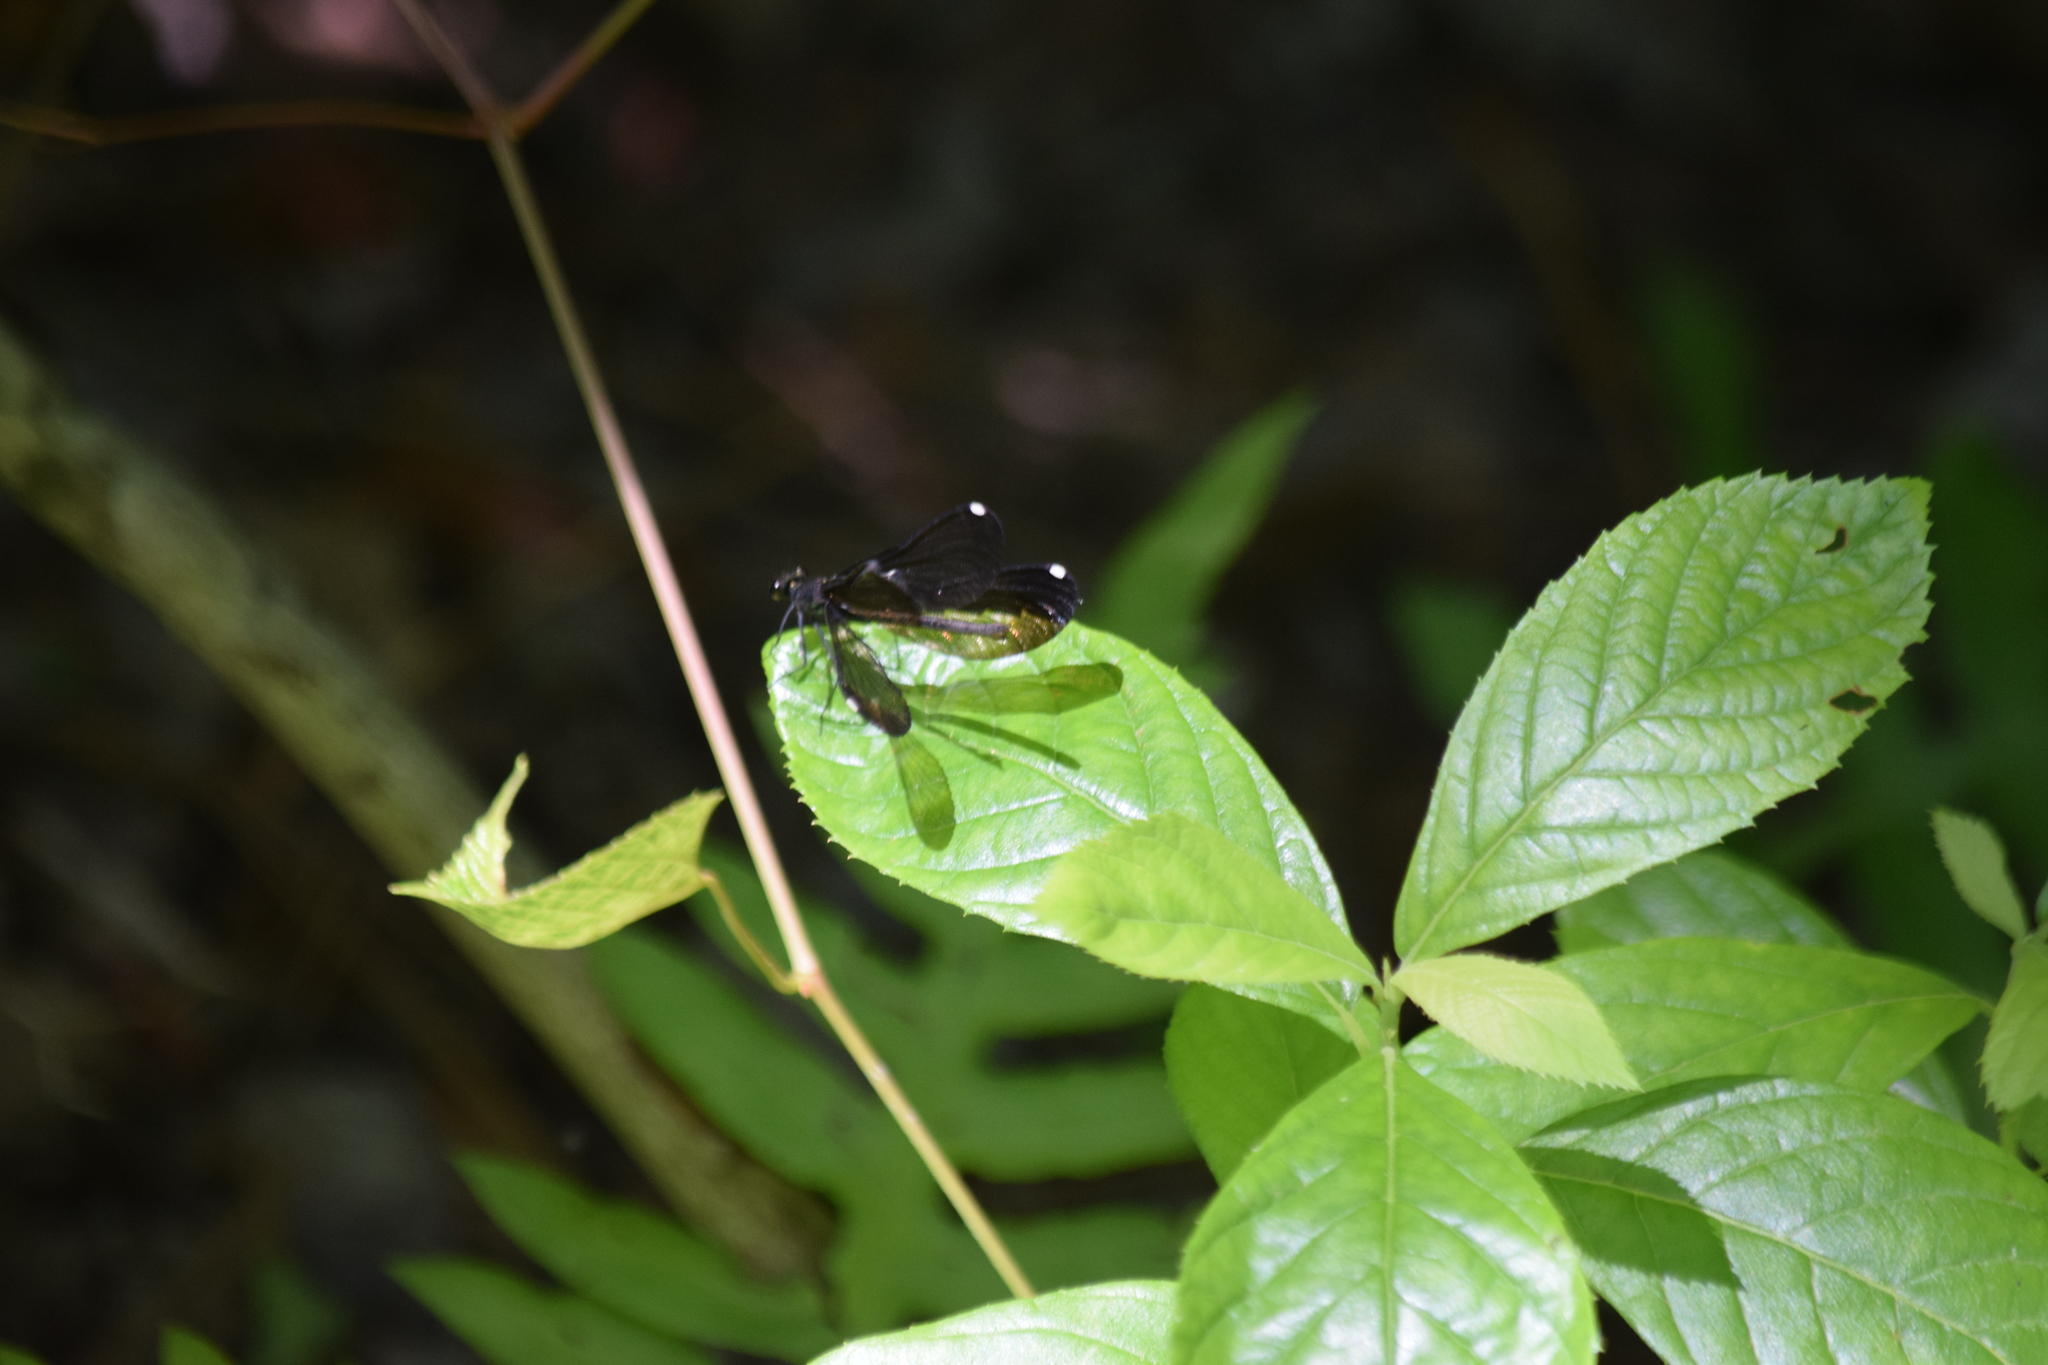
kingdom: Animalia
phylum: Arthropoda
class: Insecta
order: Odonata
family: Calopterygidae
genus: Calopteryx
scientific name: Calopteryx maculata
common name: Ebony jewelwing
